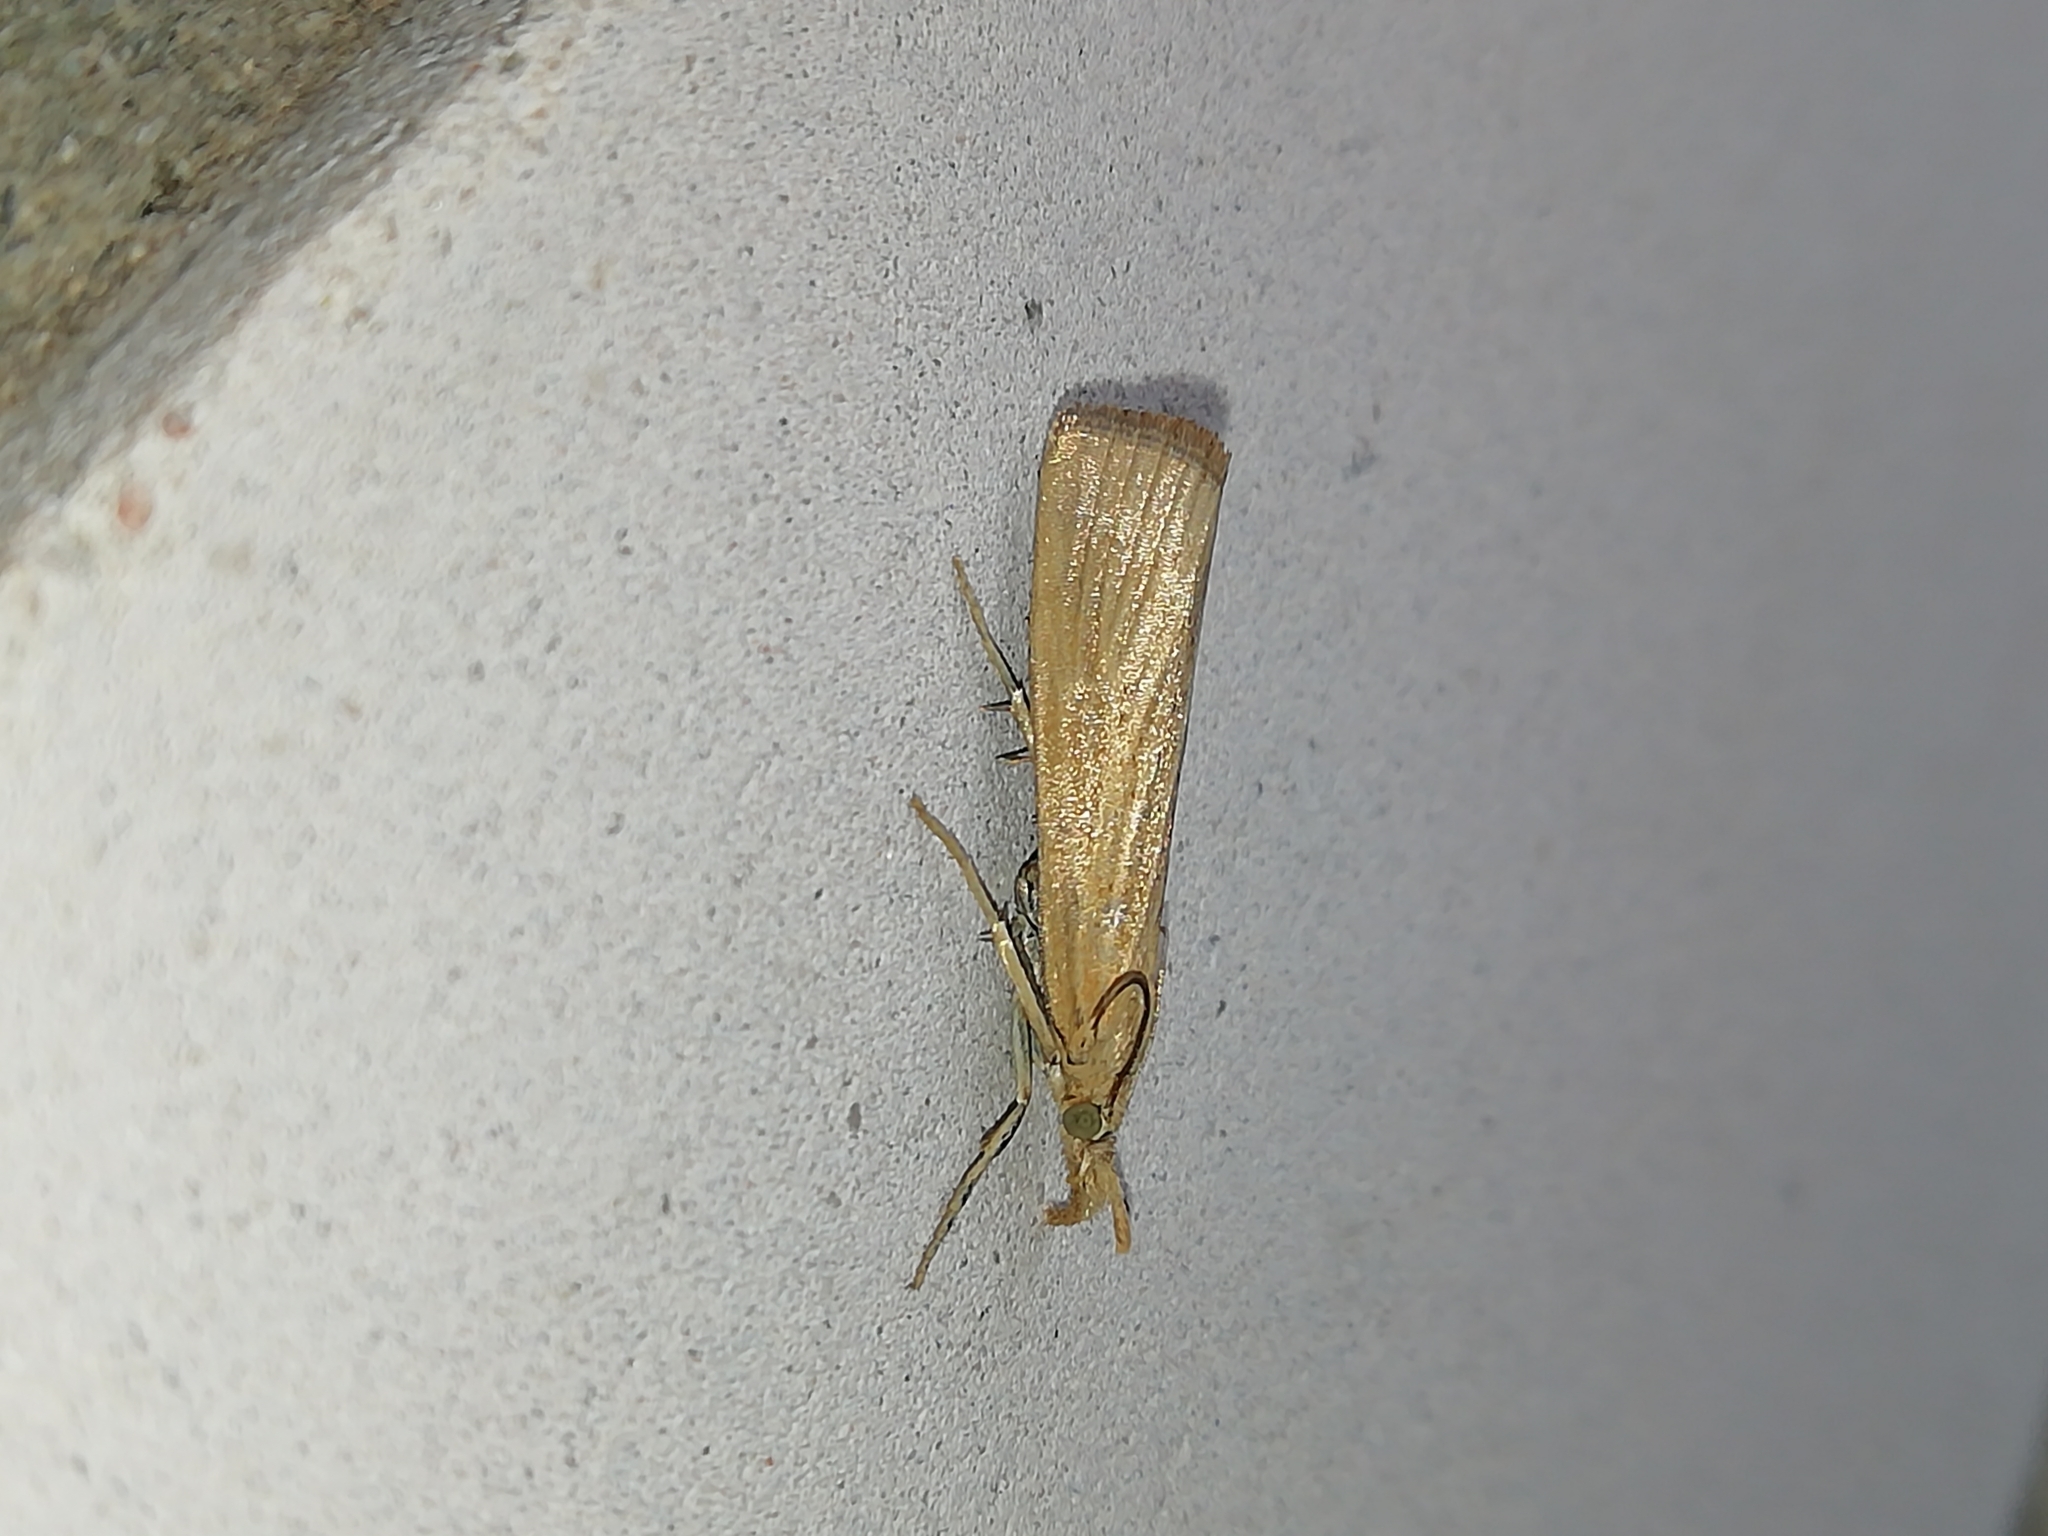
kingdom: Animalia
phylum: Arthropoda
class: Insecta
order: Lepidoptera
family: Crambidae
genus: Pediasia
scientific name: Pediasia luteella
